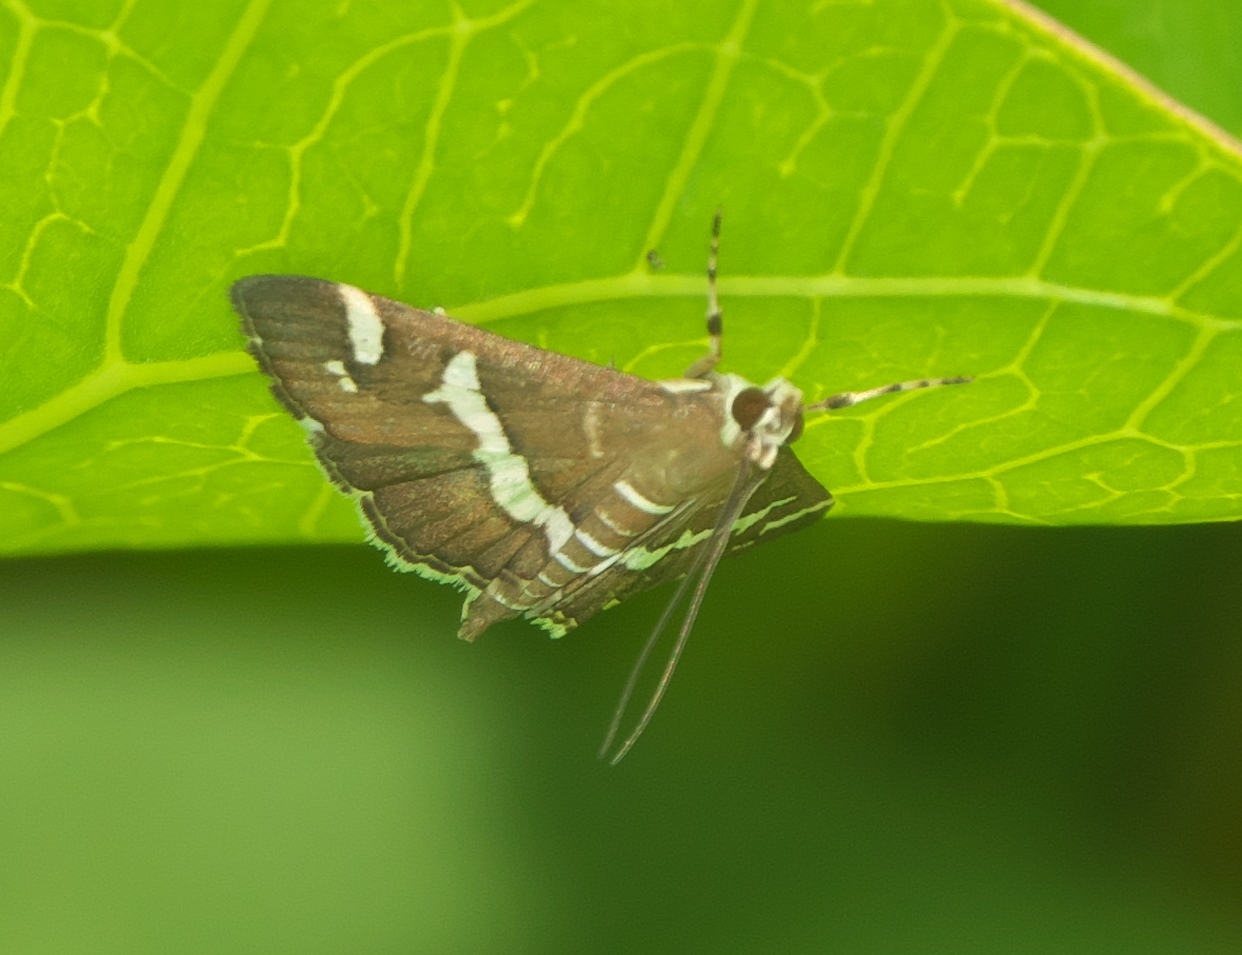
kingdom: Animalia
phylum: Arthropoda
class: Insecta
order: Lepidoptera
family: Crambidae
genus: Spoladea
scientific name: Spoladea recurvalis
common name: Beet webworm moth
